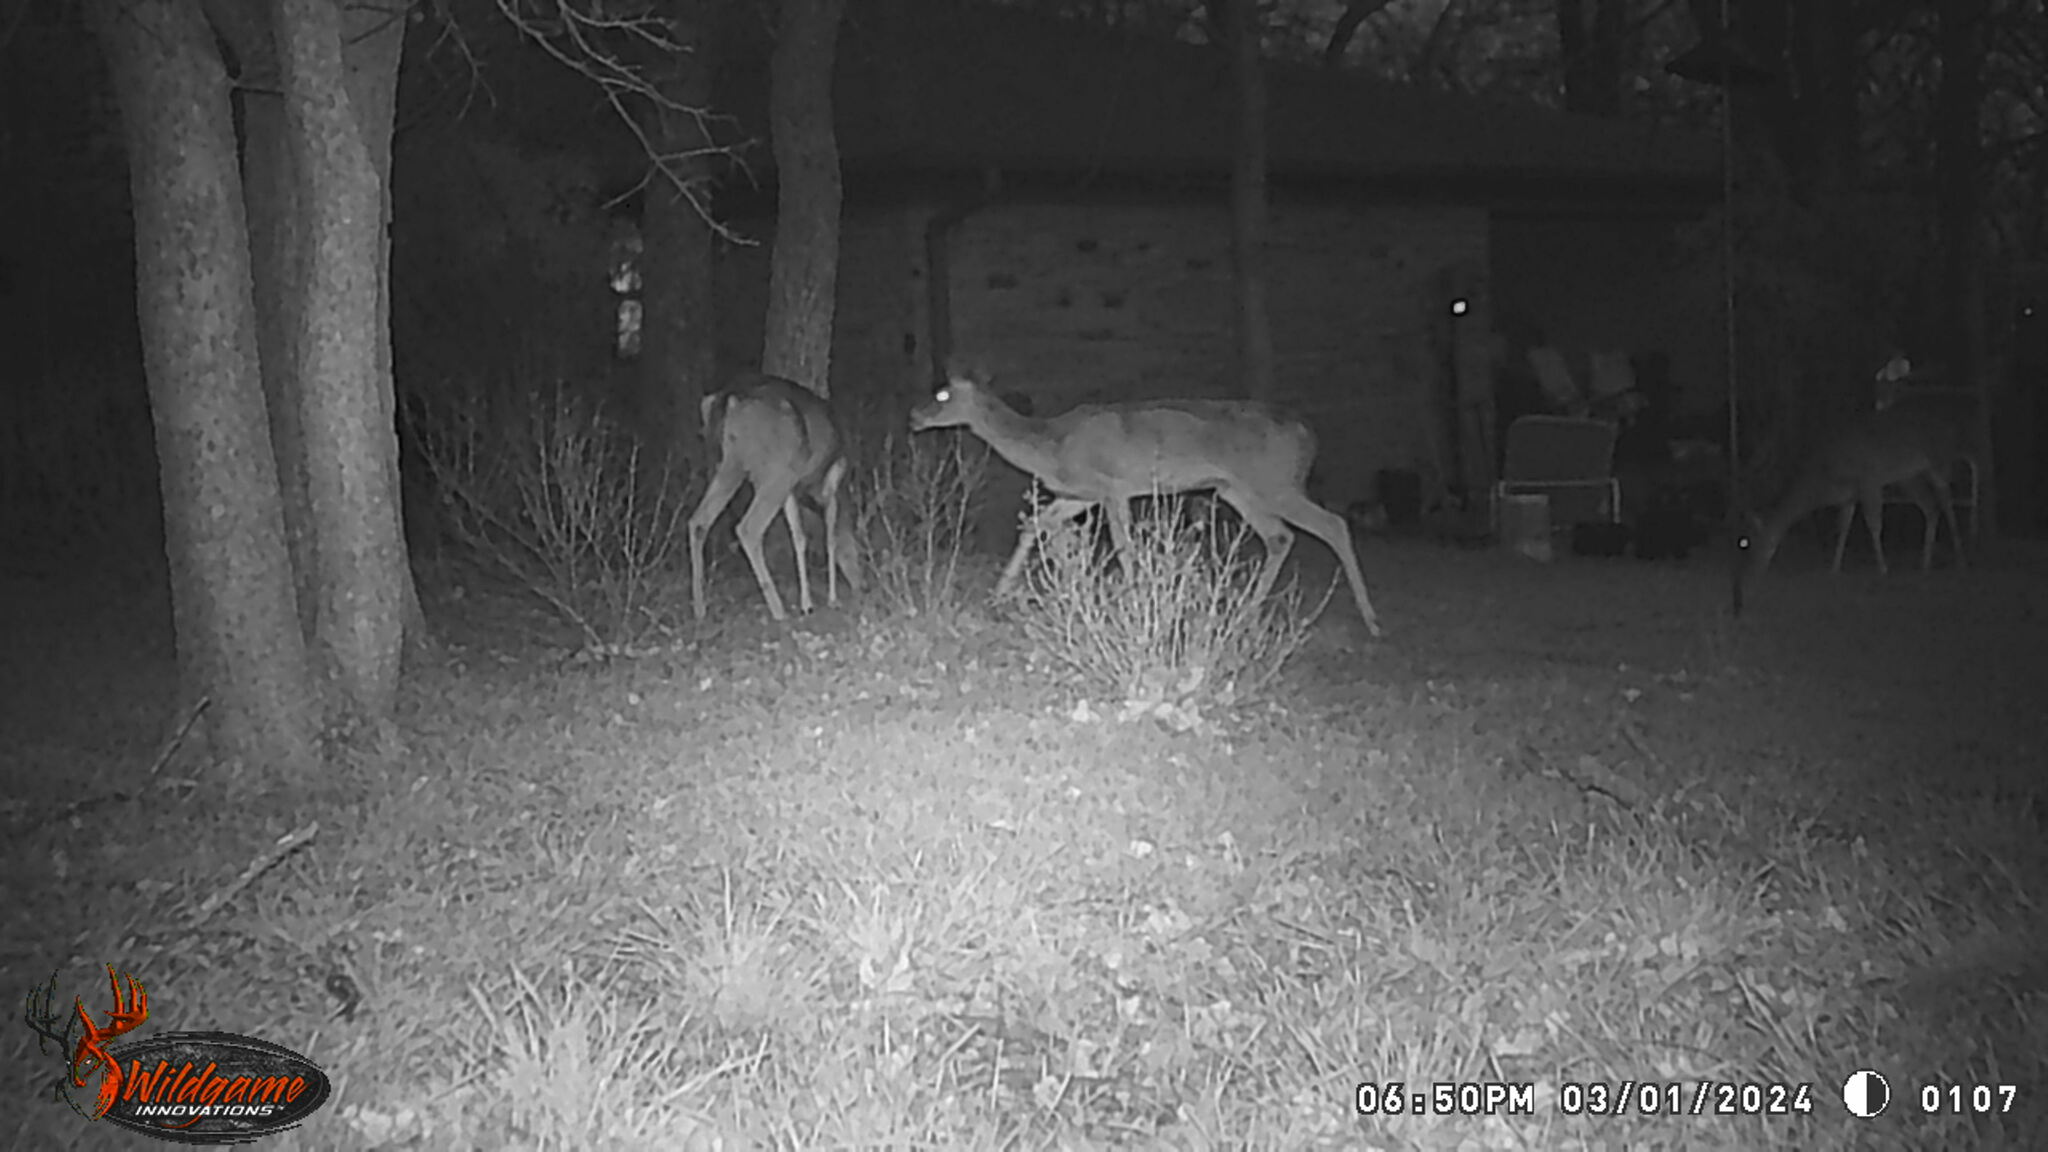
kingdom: Animalia
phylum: Chordata
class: Mammalia
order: Artiodactyla
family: Cervidae
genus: Odocoileus
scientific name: Odocoileus virginianus
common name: White-tailed deer
